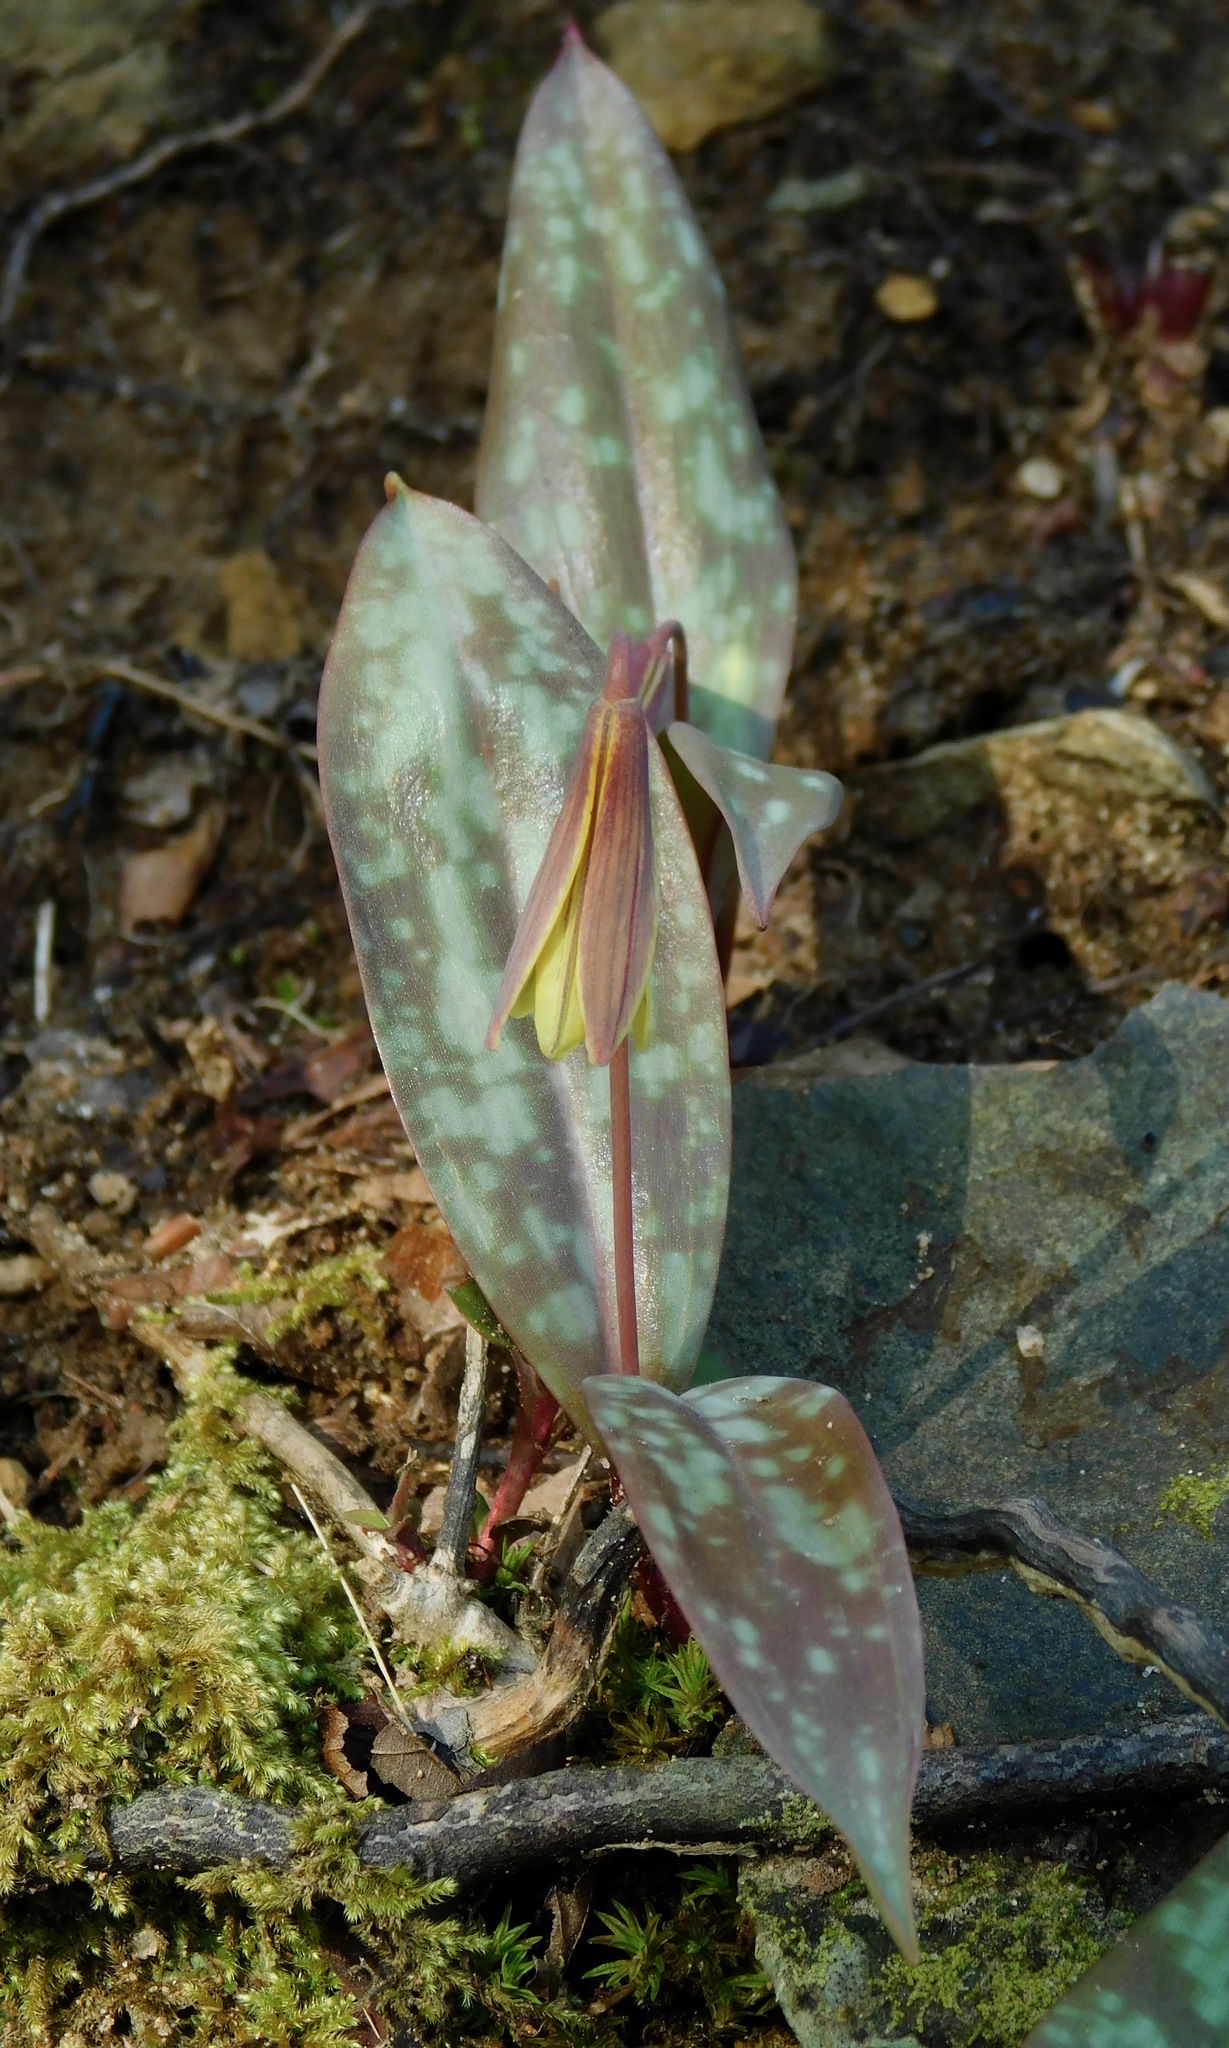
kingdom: Plantae
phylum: Tracheophyta
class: Liliopsida
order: Liliales
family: Liliaceae
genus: Erythronium
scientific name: Erythronium
